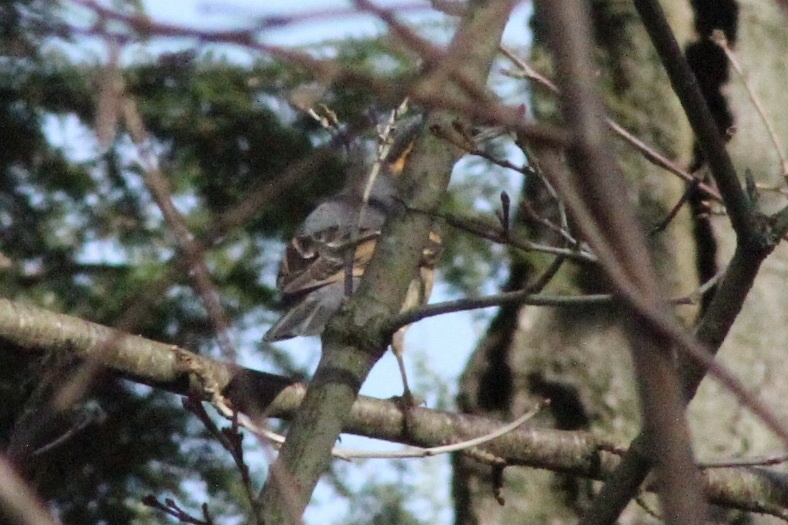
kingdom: Animalia
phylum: Chordata
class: Aves
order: Passeriformes
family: Turdidae
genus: Ixoreus
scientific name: Ixoreus naevius
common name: Varied thrush
